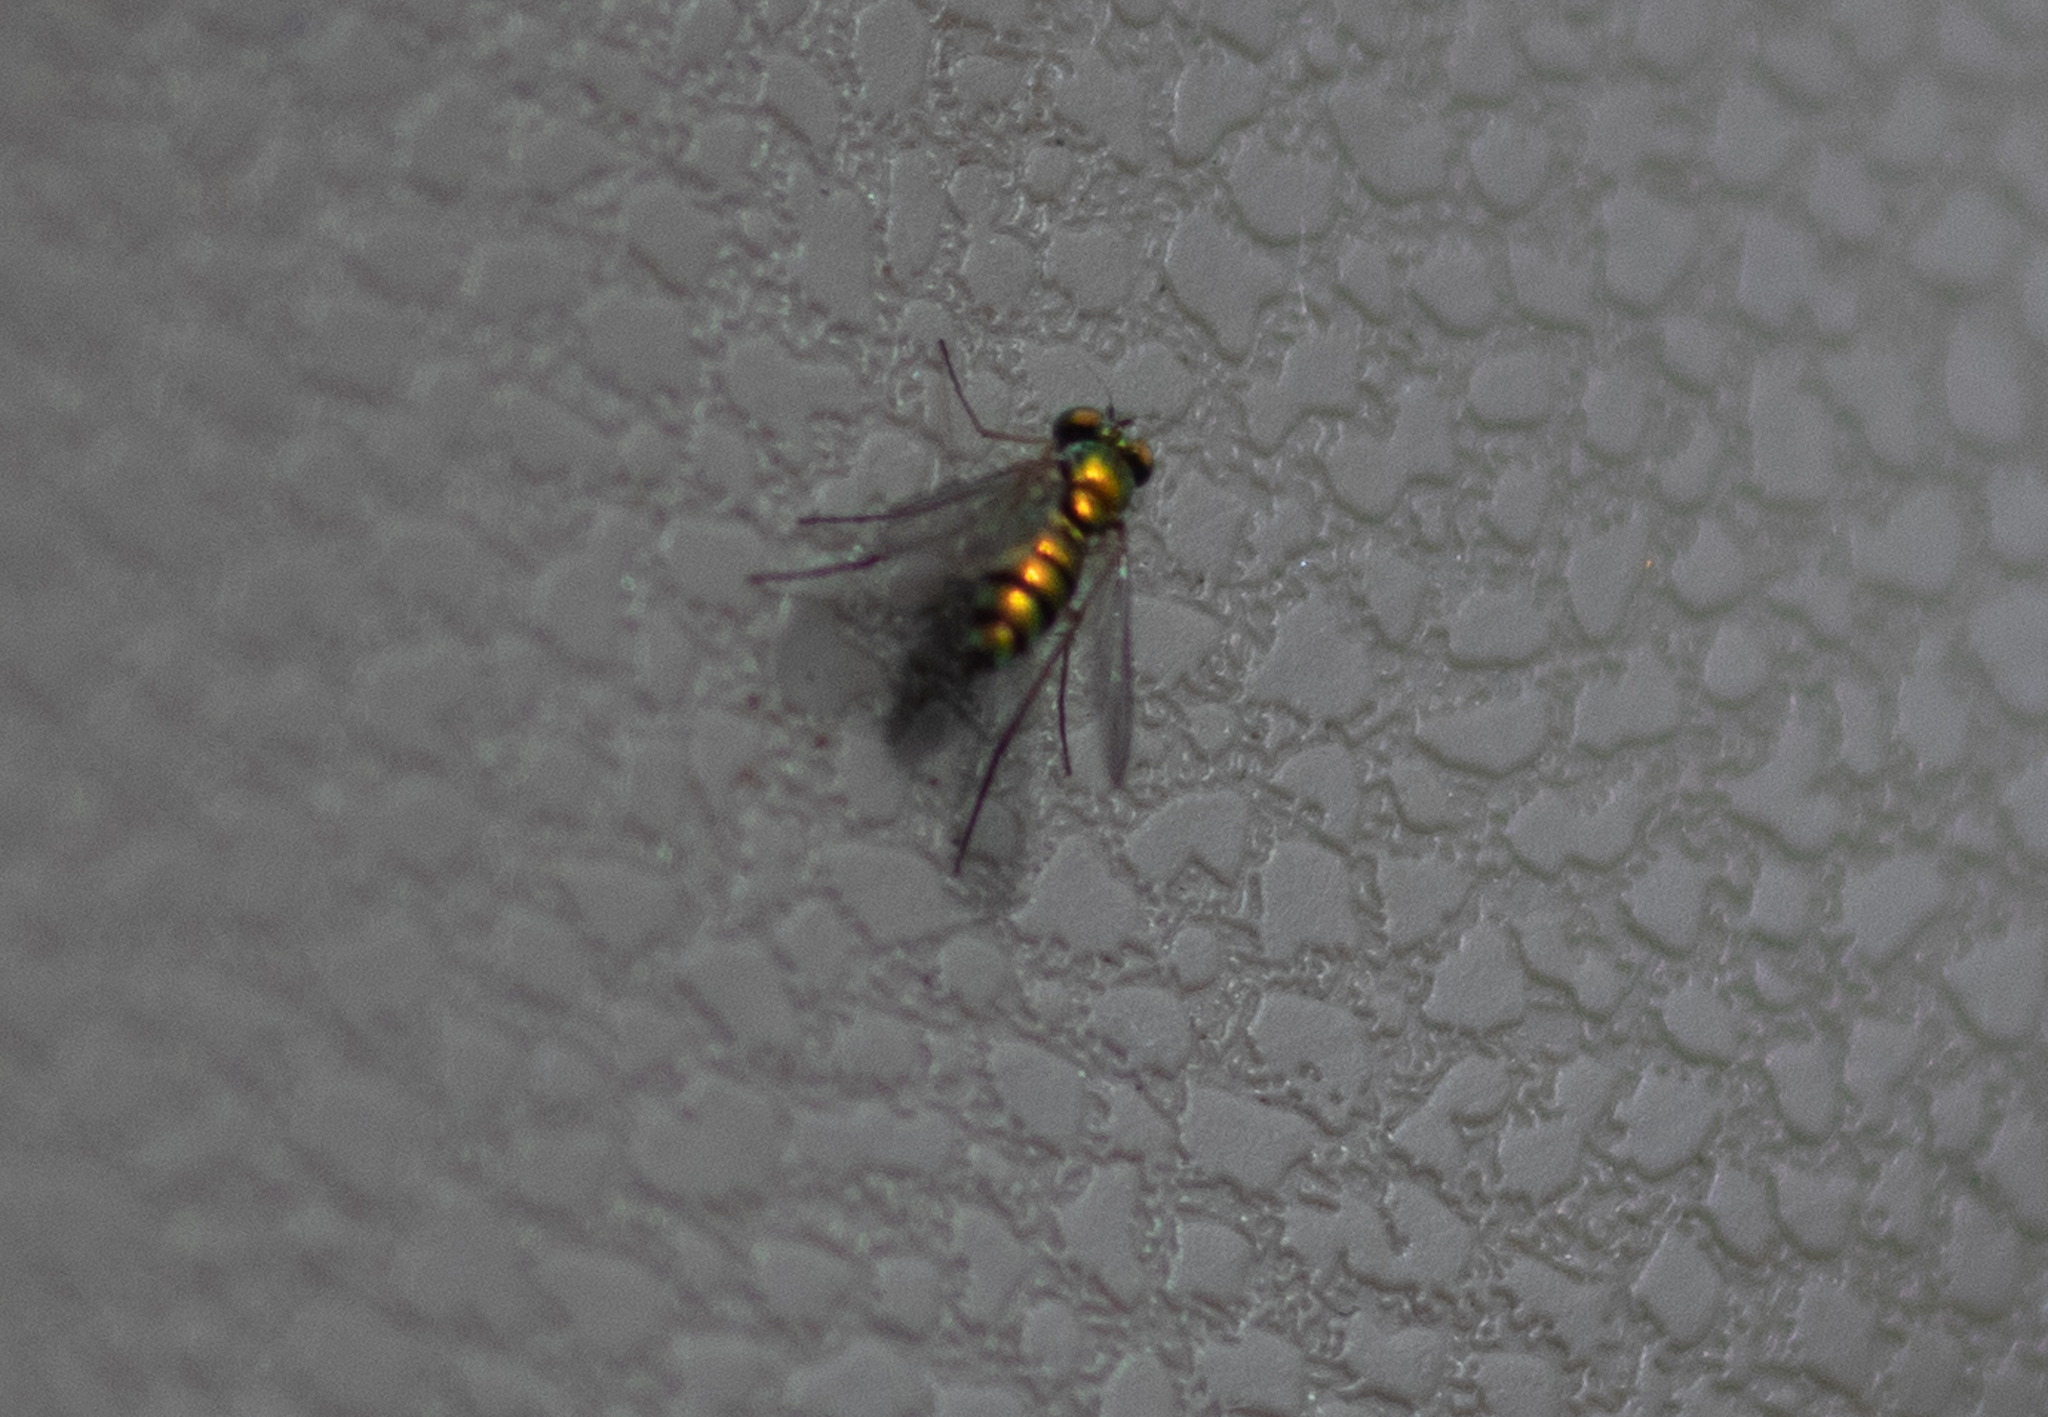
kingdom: Animalia
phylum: Arthropoda
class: Insecta
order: Diptera
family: Dolichopodidae
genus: Condylostylus
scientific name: Condylostylus
